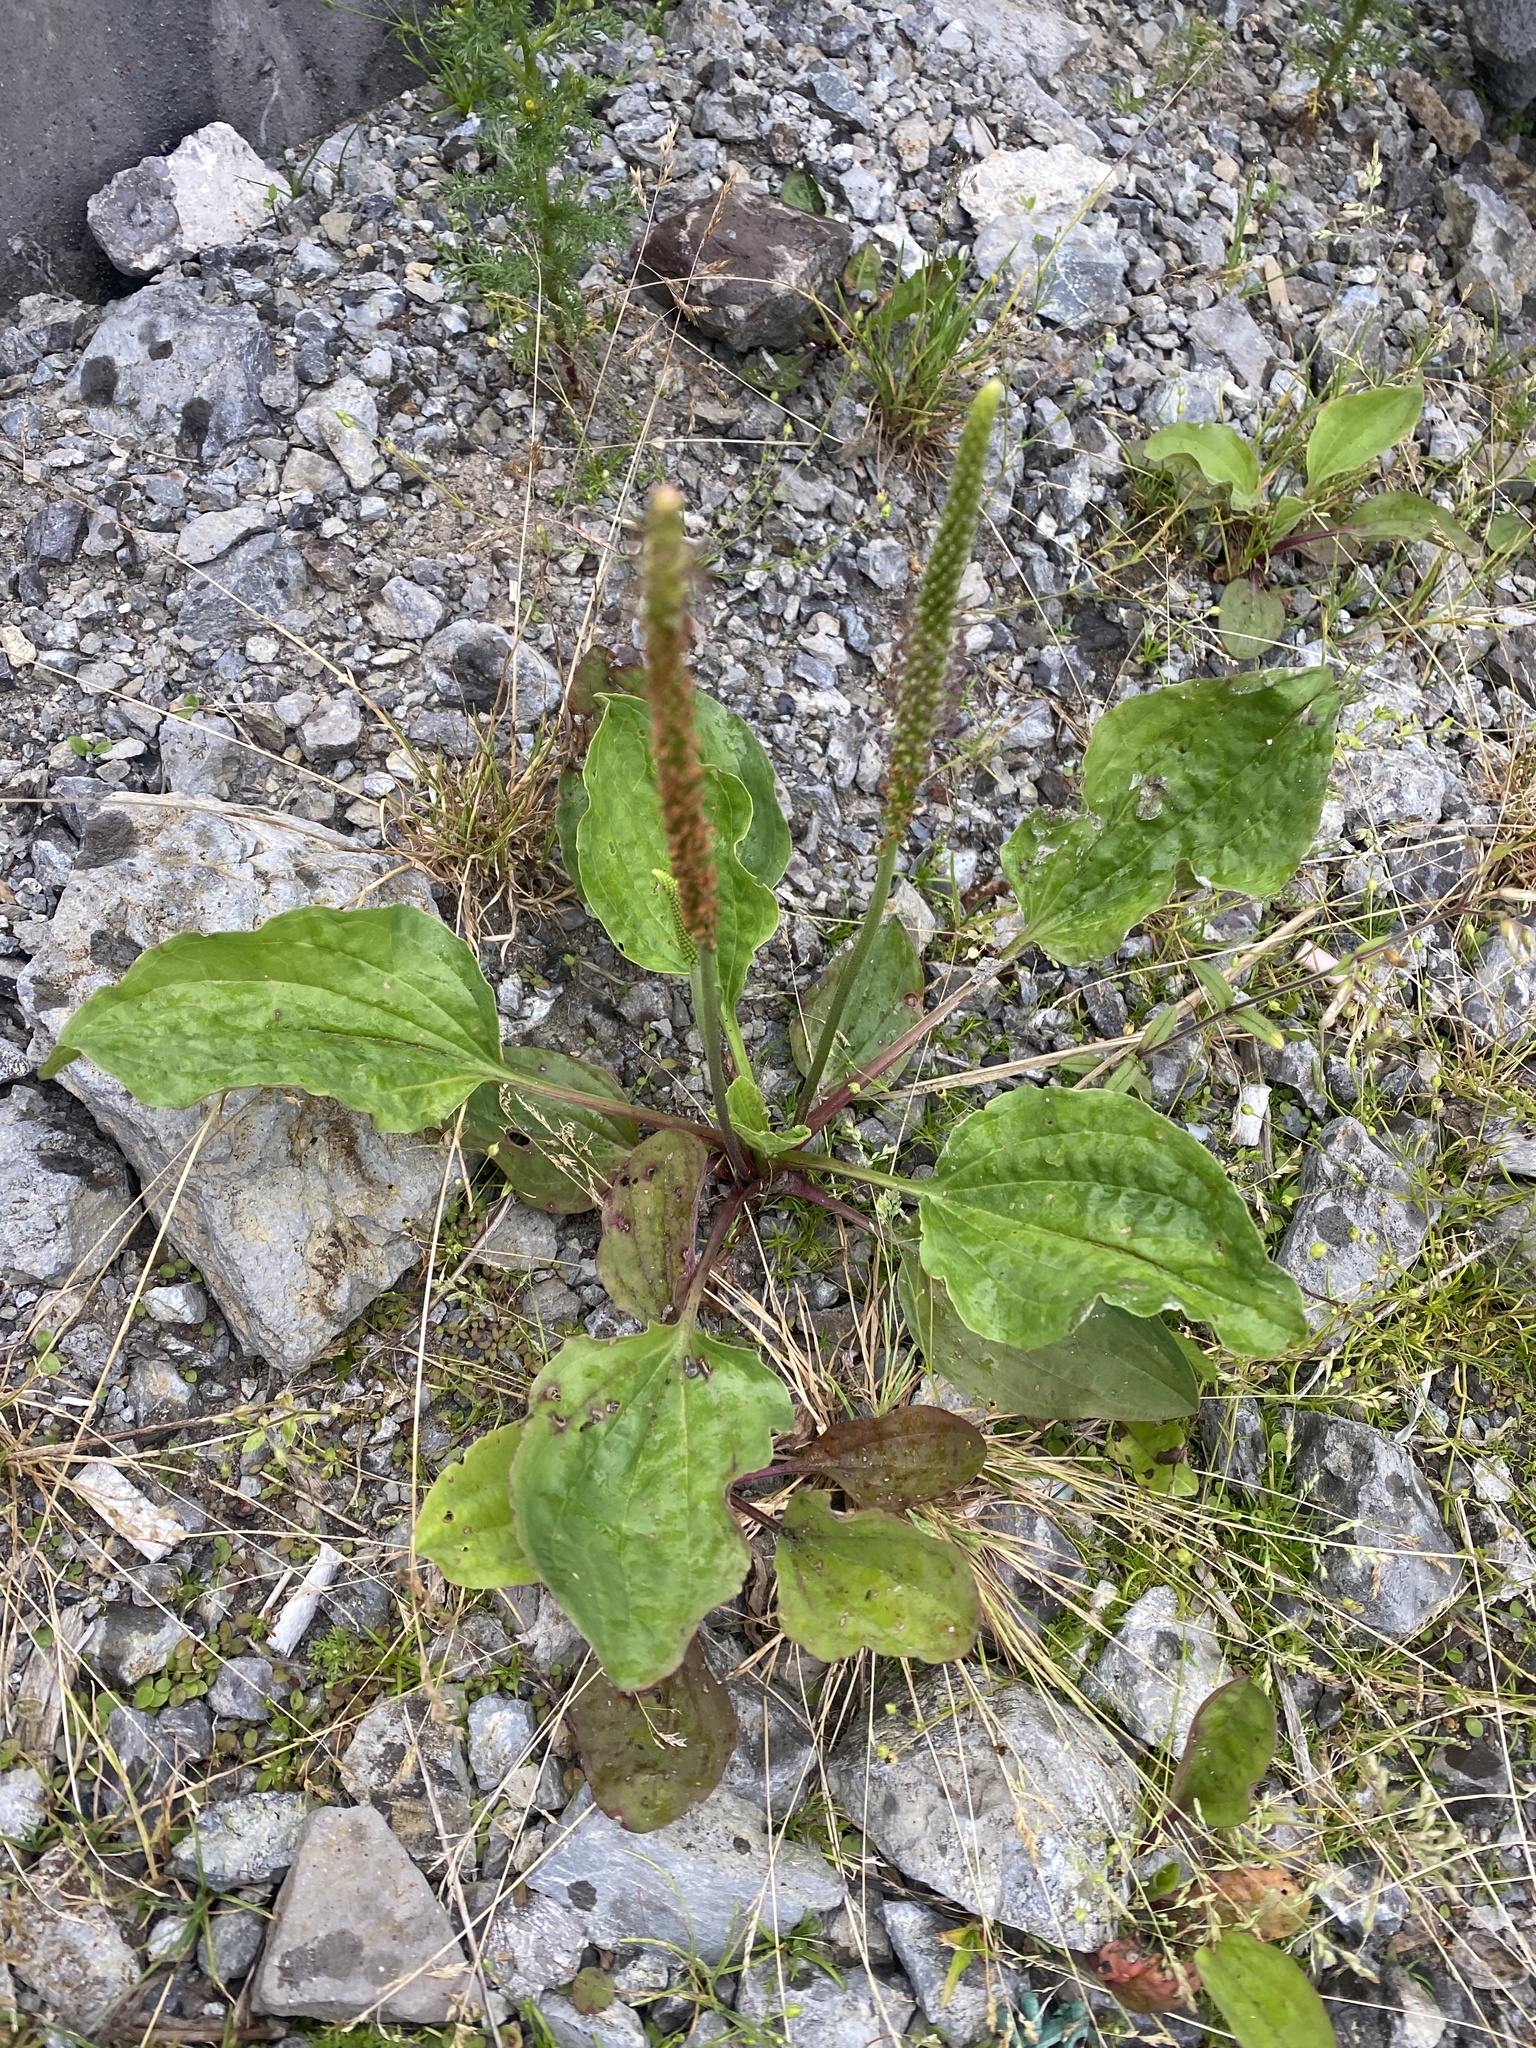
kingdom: Plantae
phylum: Tracheophyta
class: Magnoliopsida
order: Lamiales
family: Plantaginaceae
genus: Plantago
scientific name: Plantago major
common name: Common plantain
